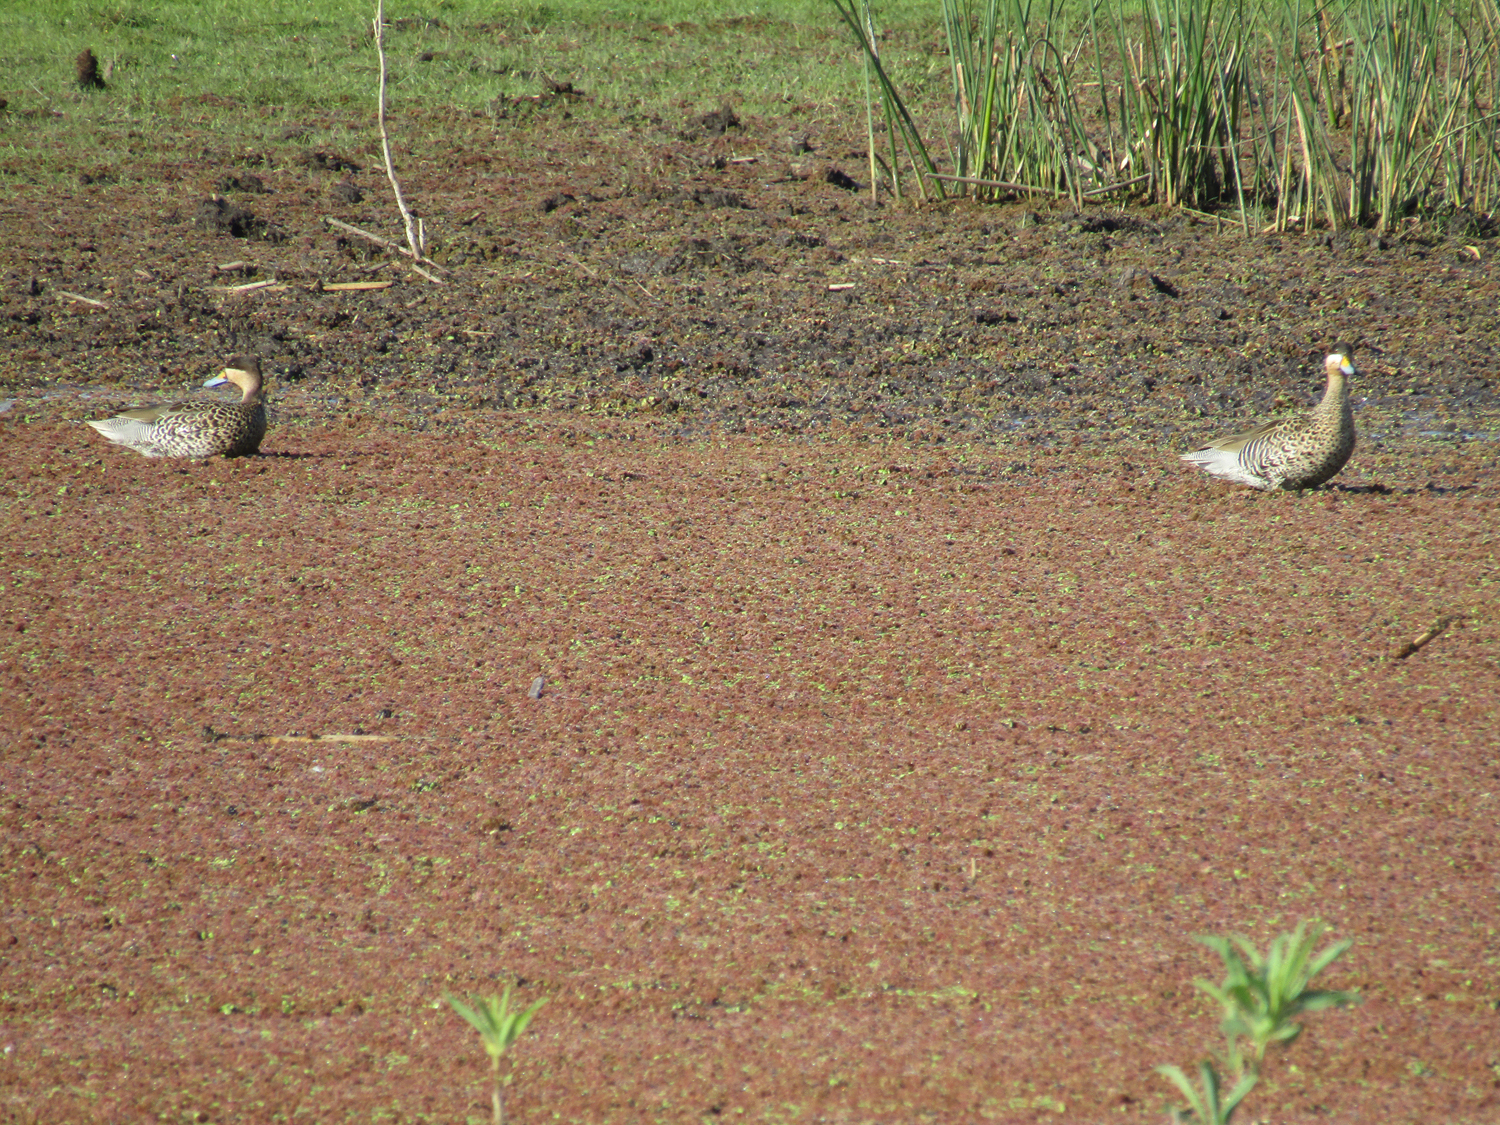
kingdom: Animalia
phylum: Chordata
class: Aves
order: Anseriformes
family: Anatidae
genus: Spatula
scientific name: Spatula versicolor
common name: Silver teal
